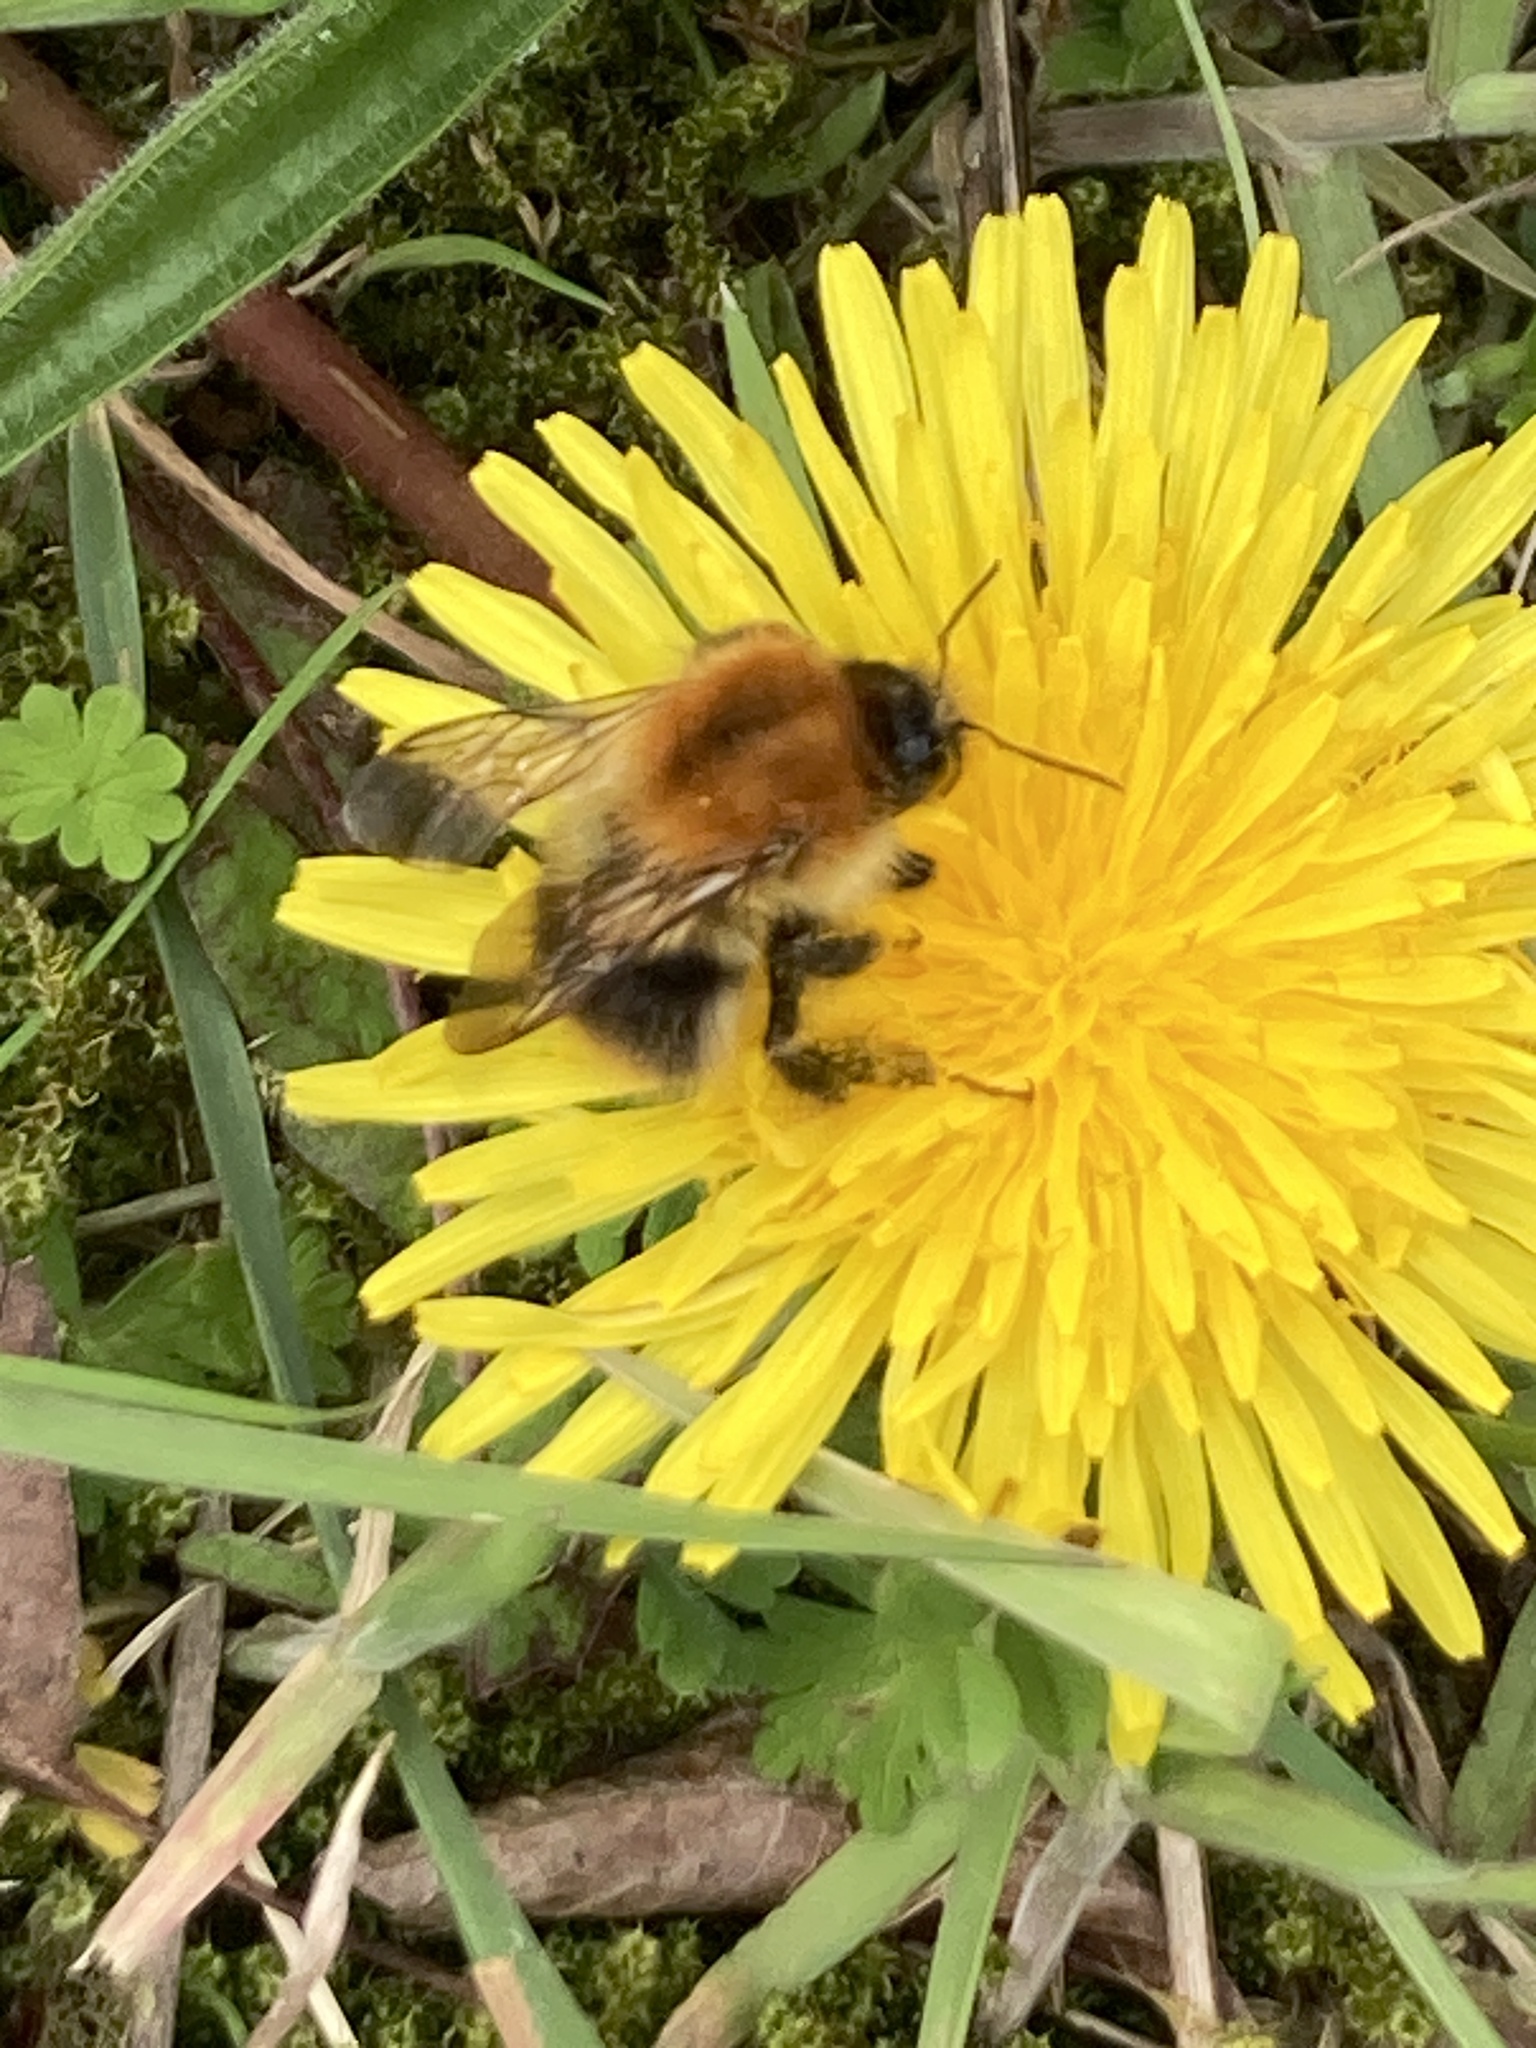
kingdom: Animalia
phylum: Arthropoda
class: Insecta
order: Hymenoptera
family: Apidae
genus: Bombus
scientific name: Bombus pascuorum
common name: Common carder bee
